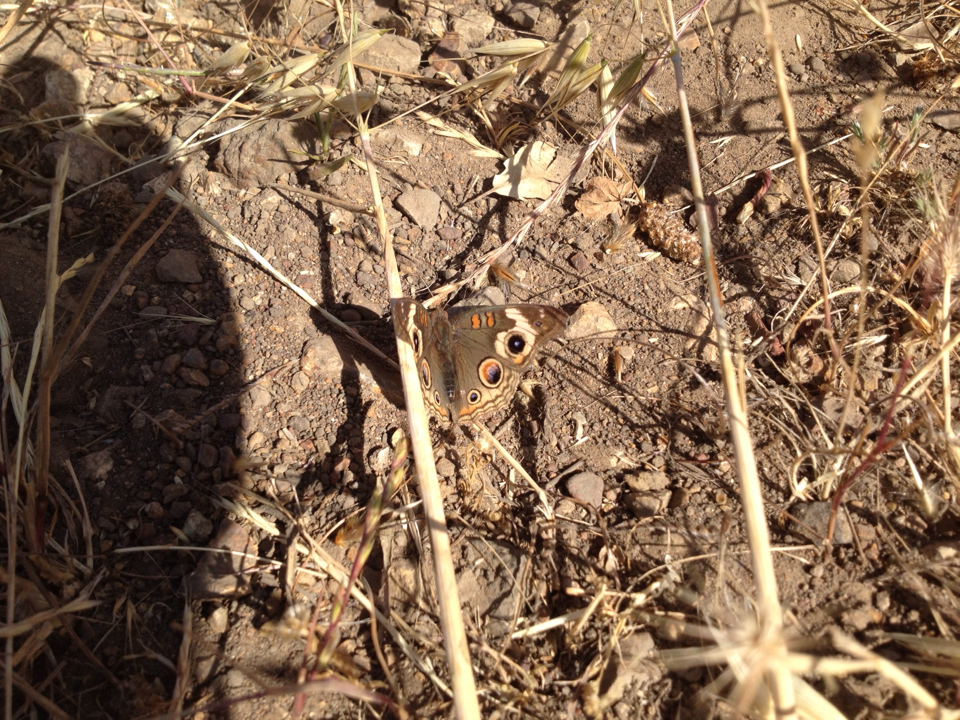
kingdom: Animalia
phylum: Arthropoda
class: Insecta
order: Lepidoptera
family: Nymphalidae
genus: Junonia
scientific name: Junonia grisea
